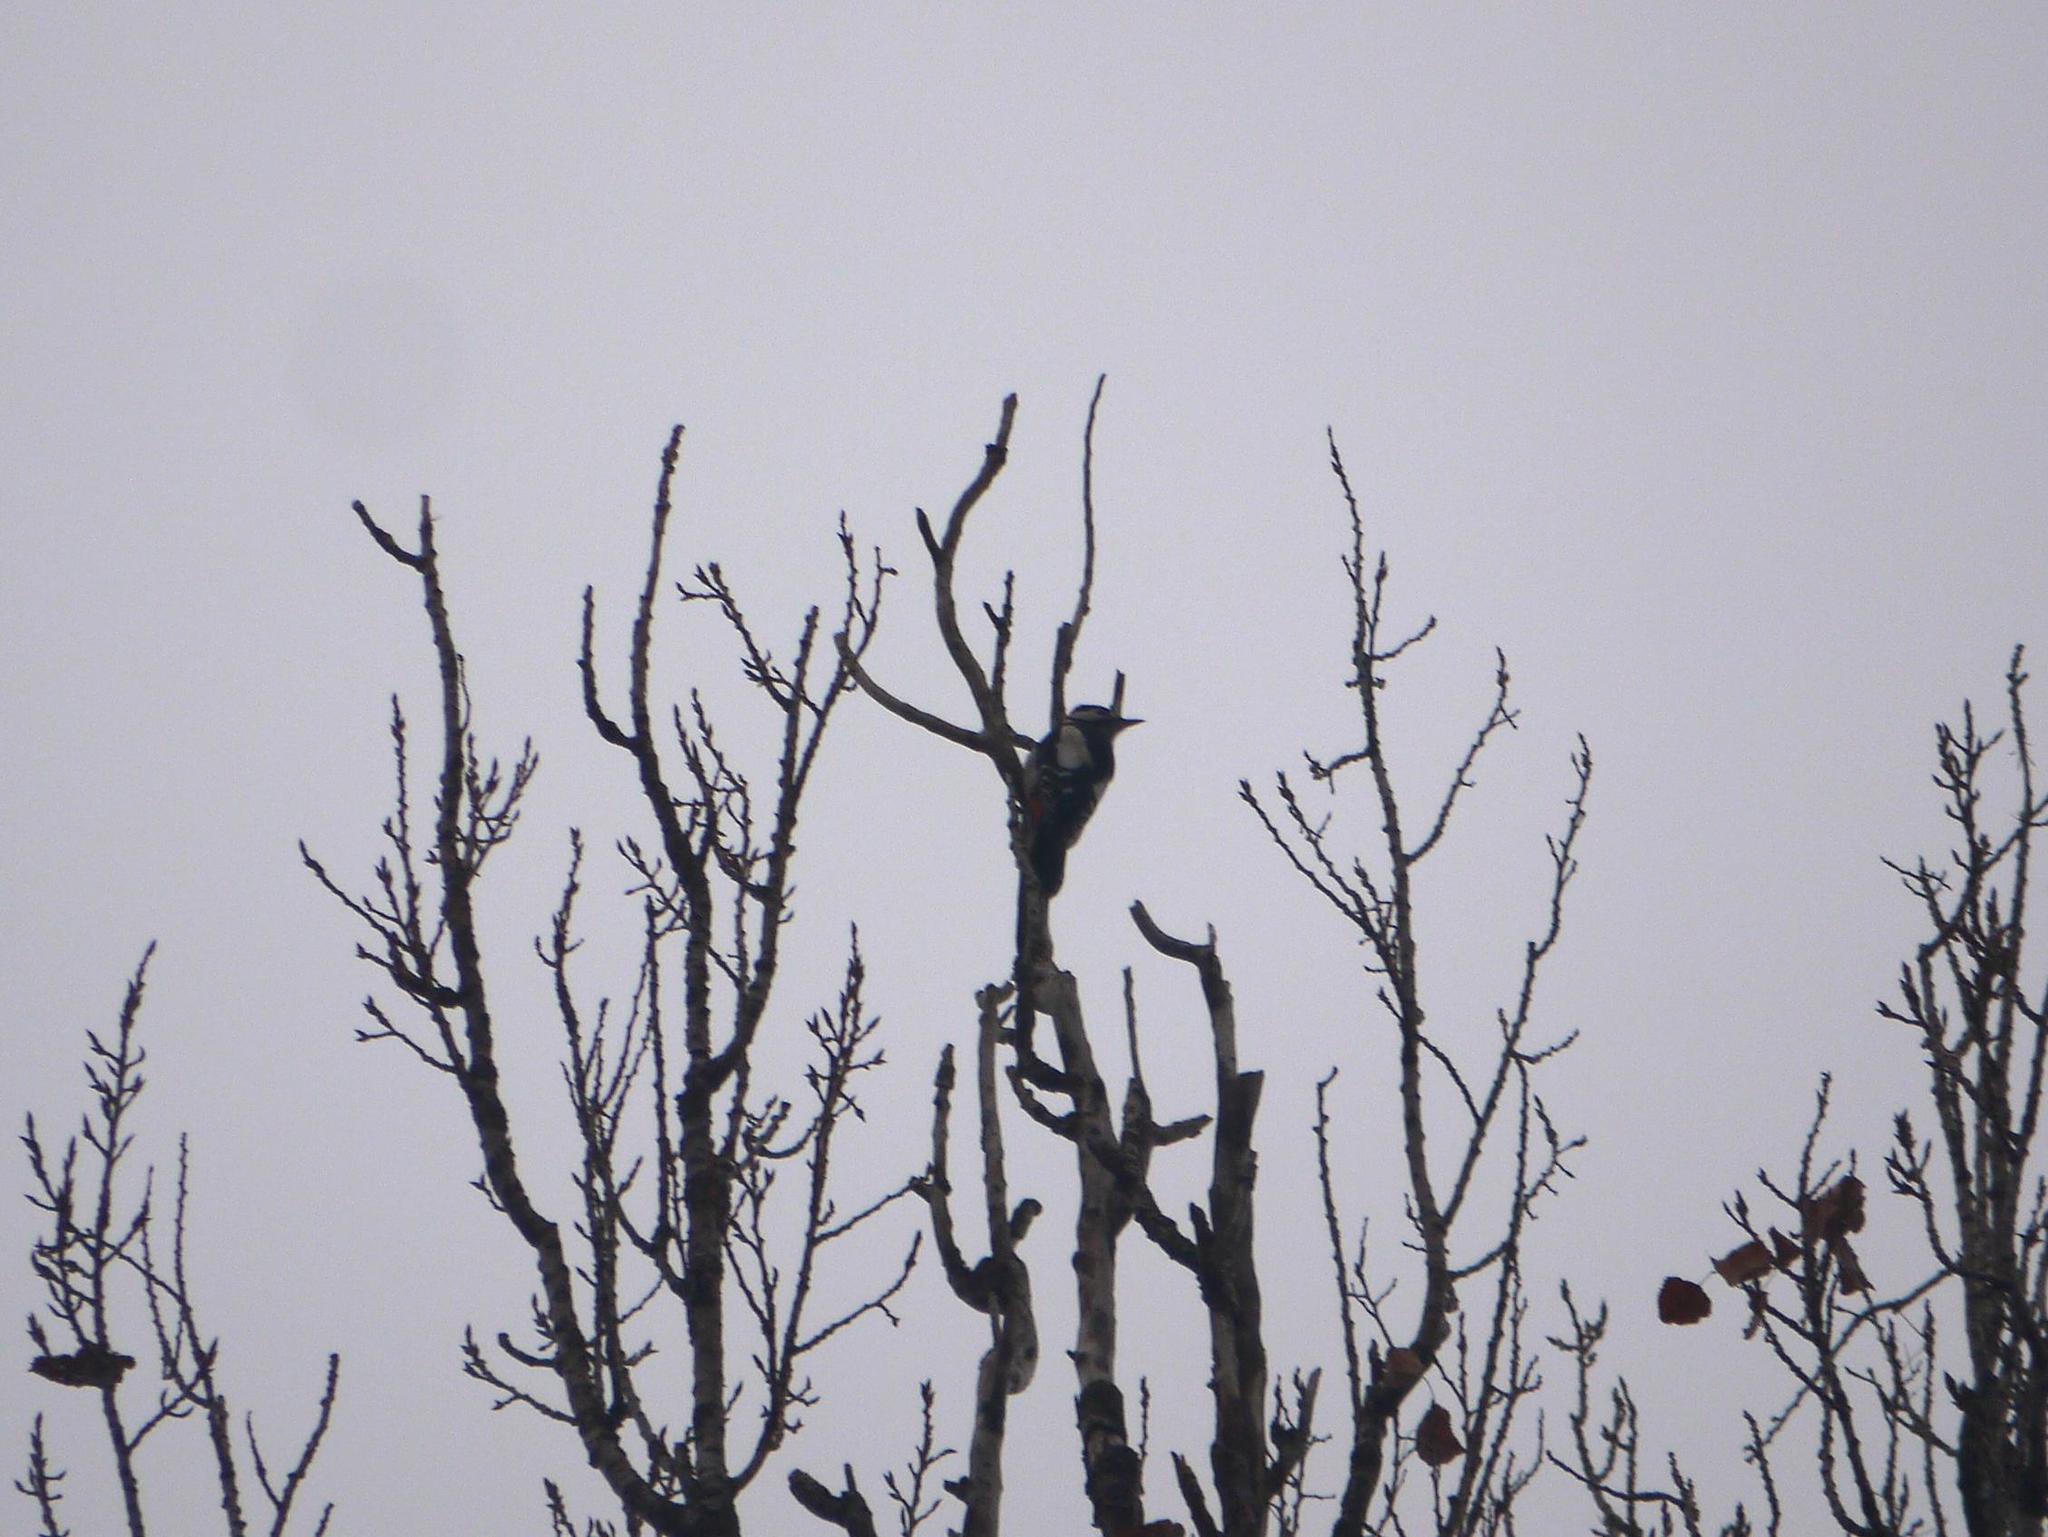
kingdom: Animalia
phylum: Chordata
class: Aves
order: Piciformes
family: Picidae
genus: Dendrocopos
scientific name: Dendrocopos major
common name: Great spotted woodpecker
